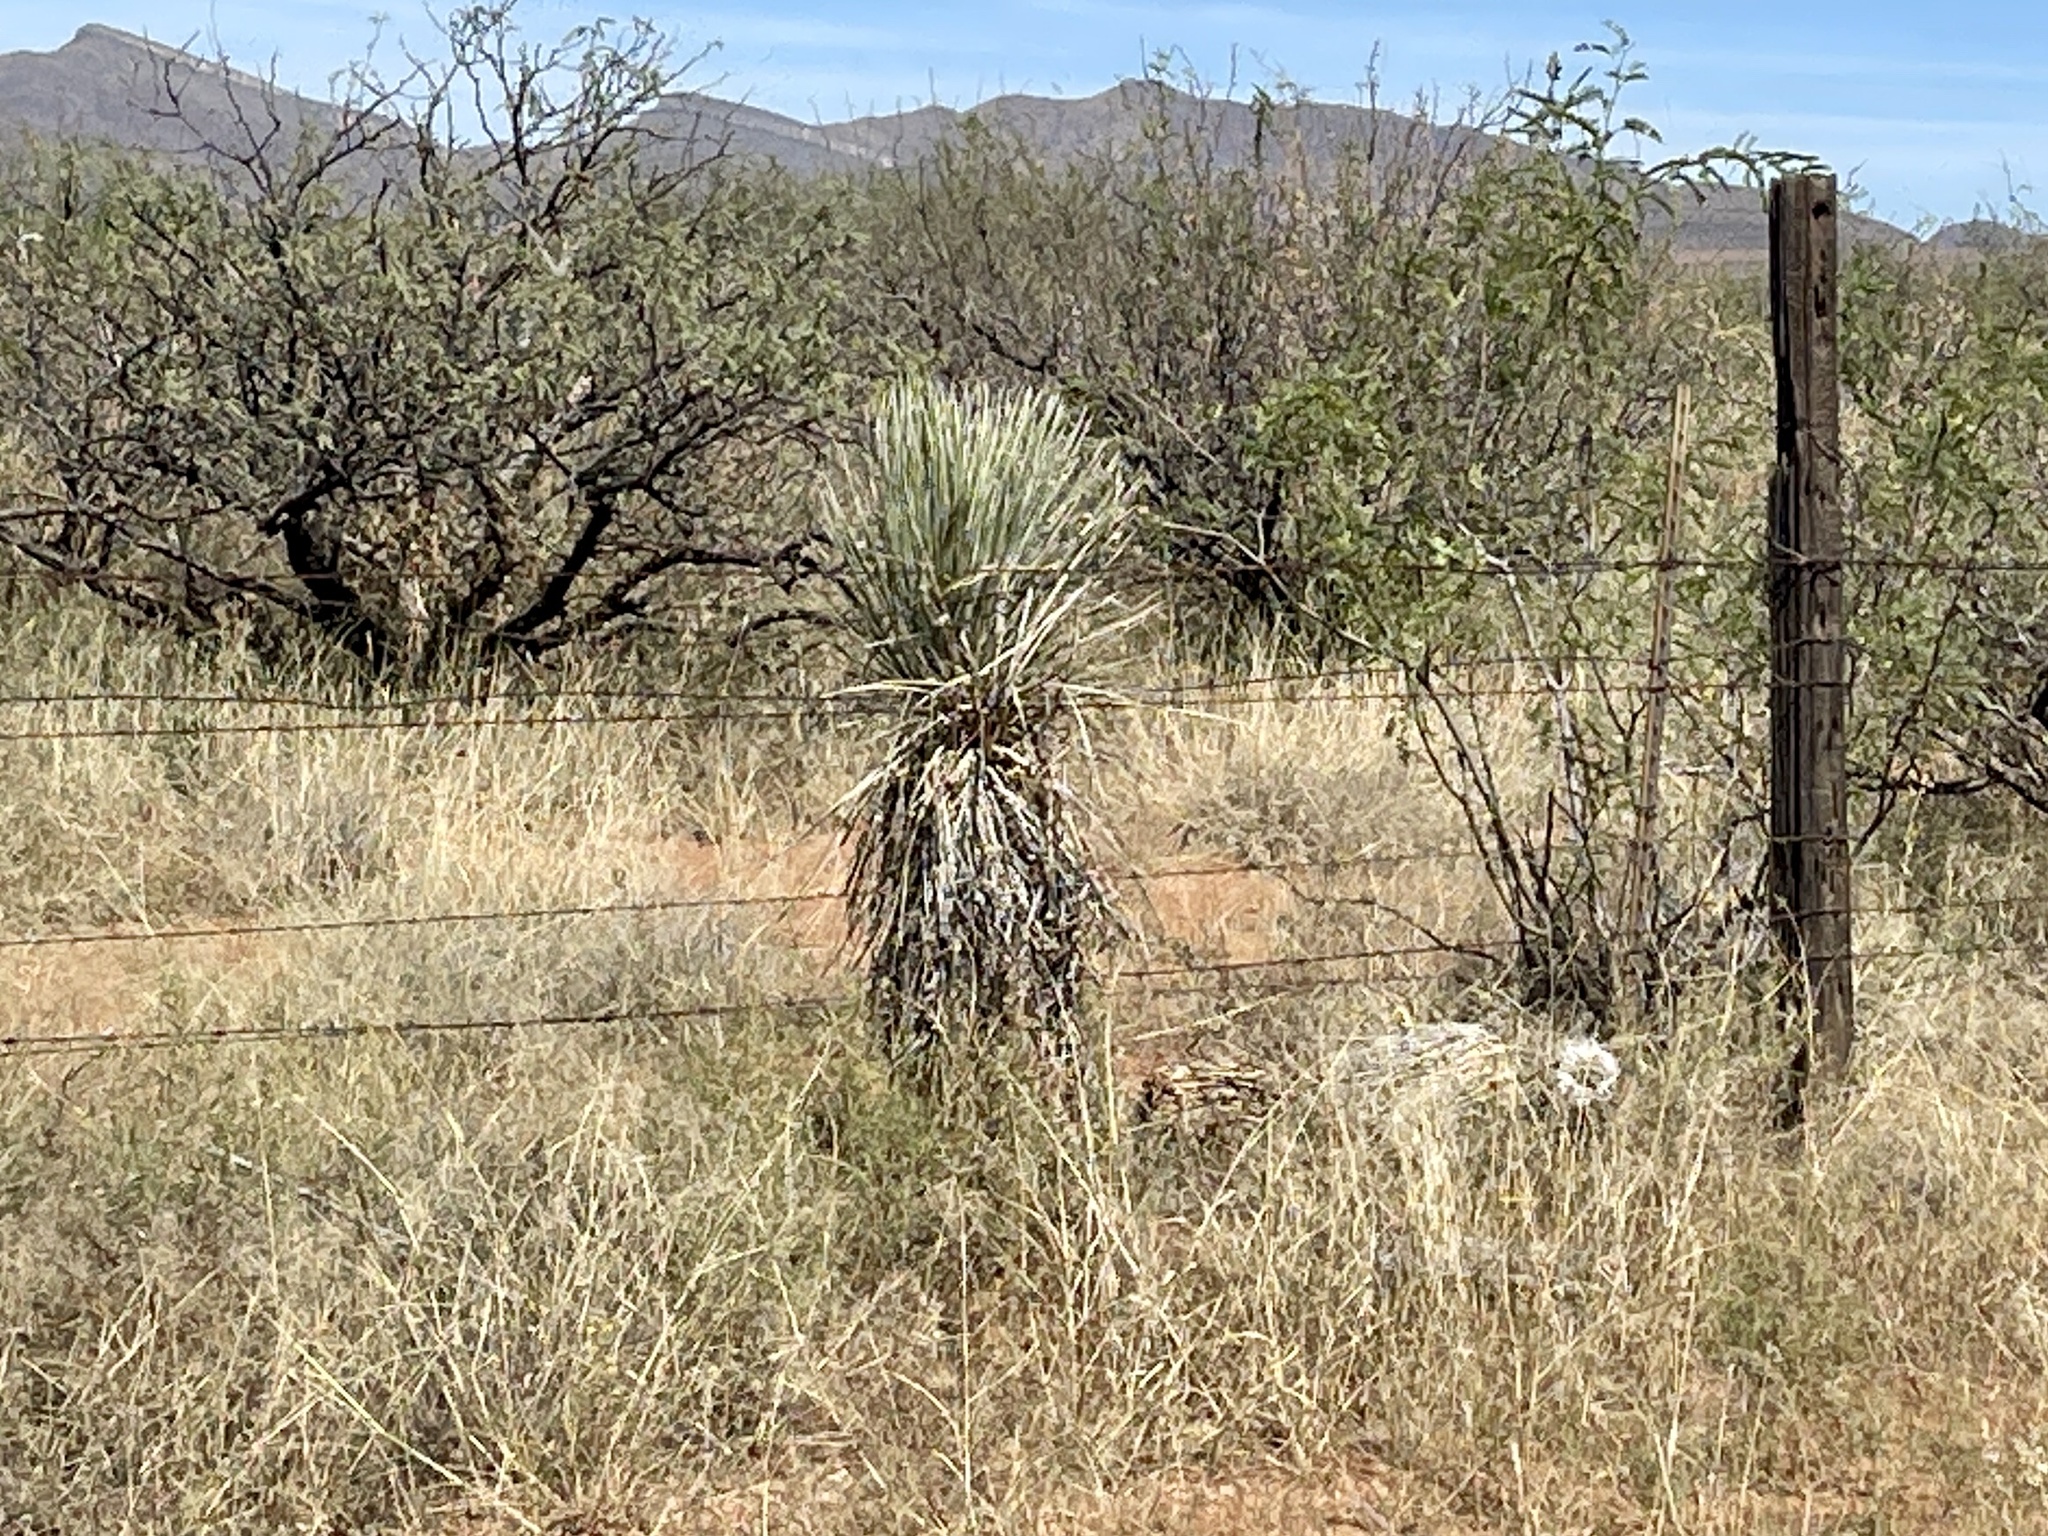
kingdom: Plantae
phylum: Tracheophyta
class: Liliopsida
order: Asparagales
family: Asparagaceae
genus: Yucca
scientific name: Yucca elata
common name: Palmella
